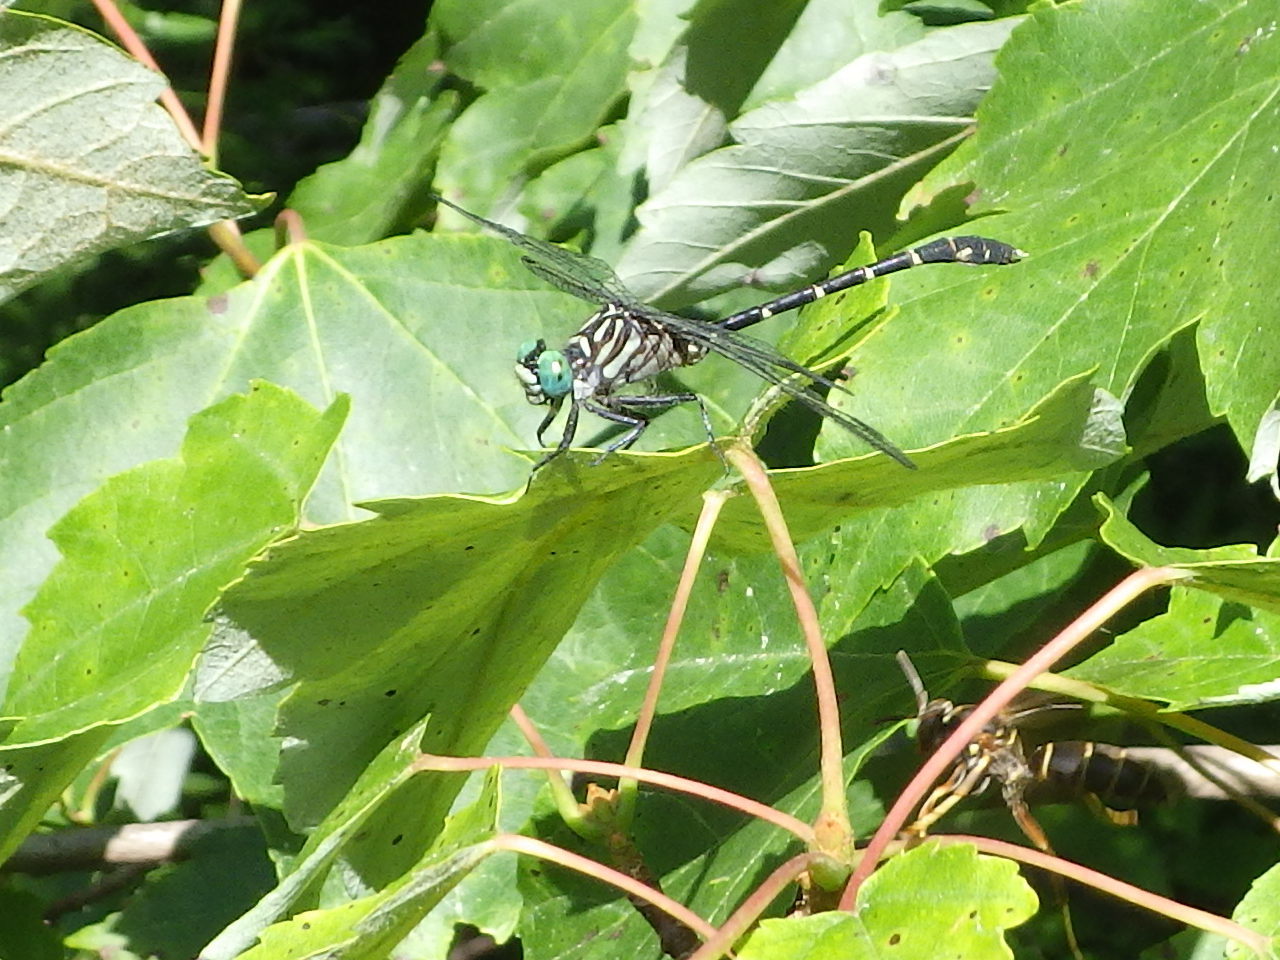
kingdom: Animalia
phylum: Arthropoda
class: Insecta
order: Odonata
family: Gomphidae
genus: Stylogomphus
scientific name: Stylogomphus albistylus
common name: Eastern least clubtail
